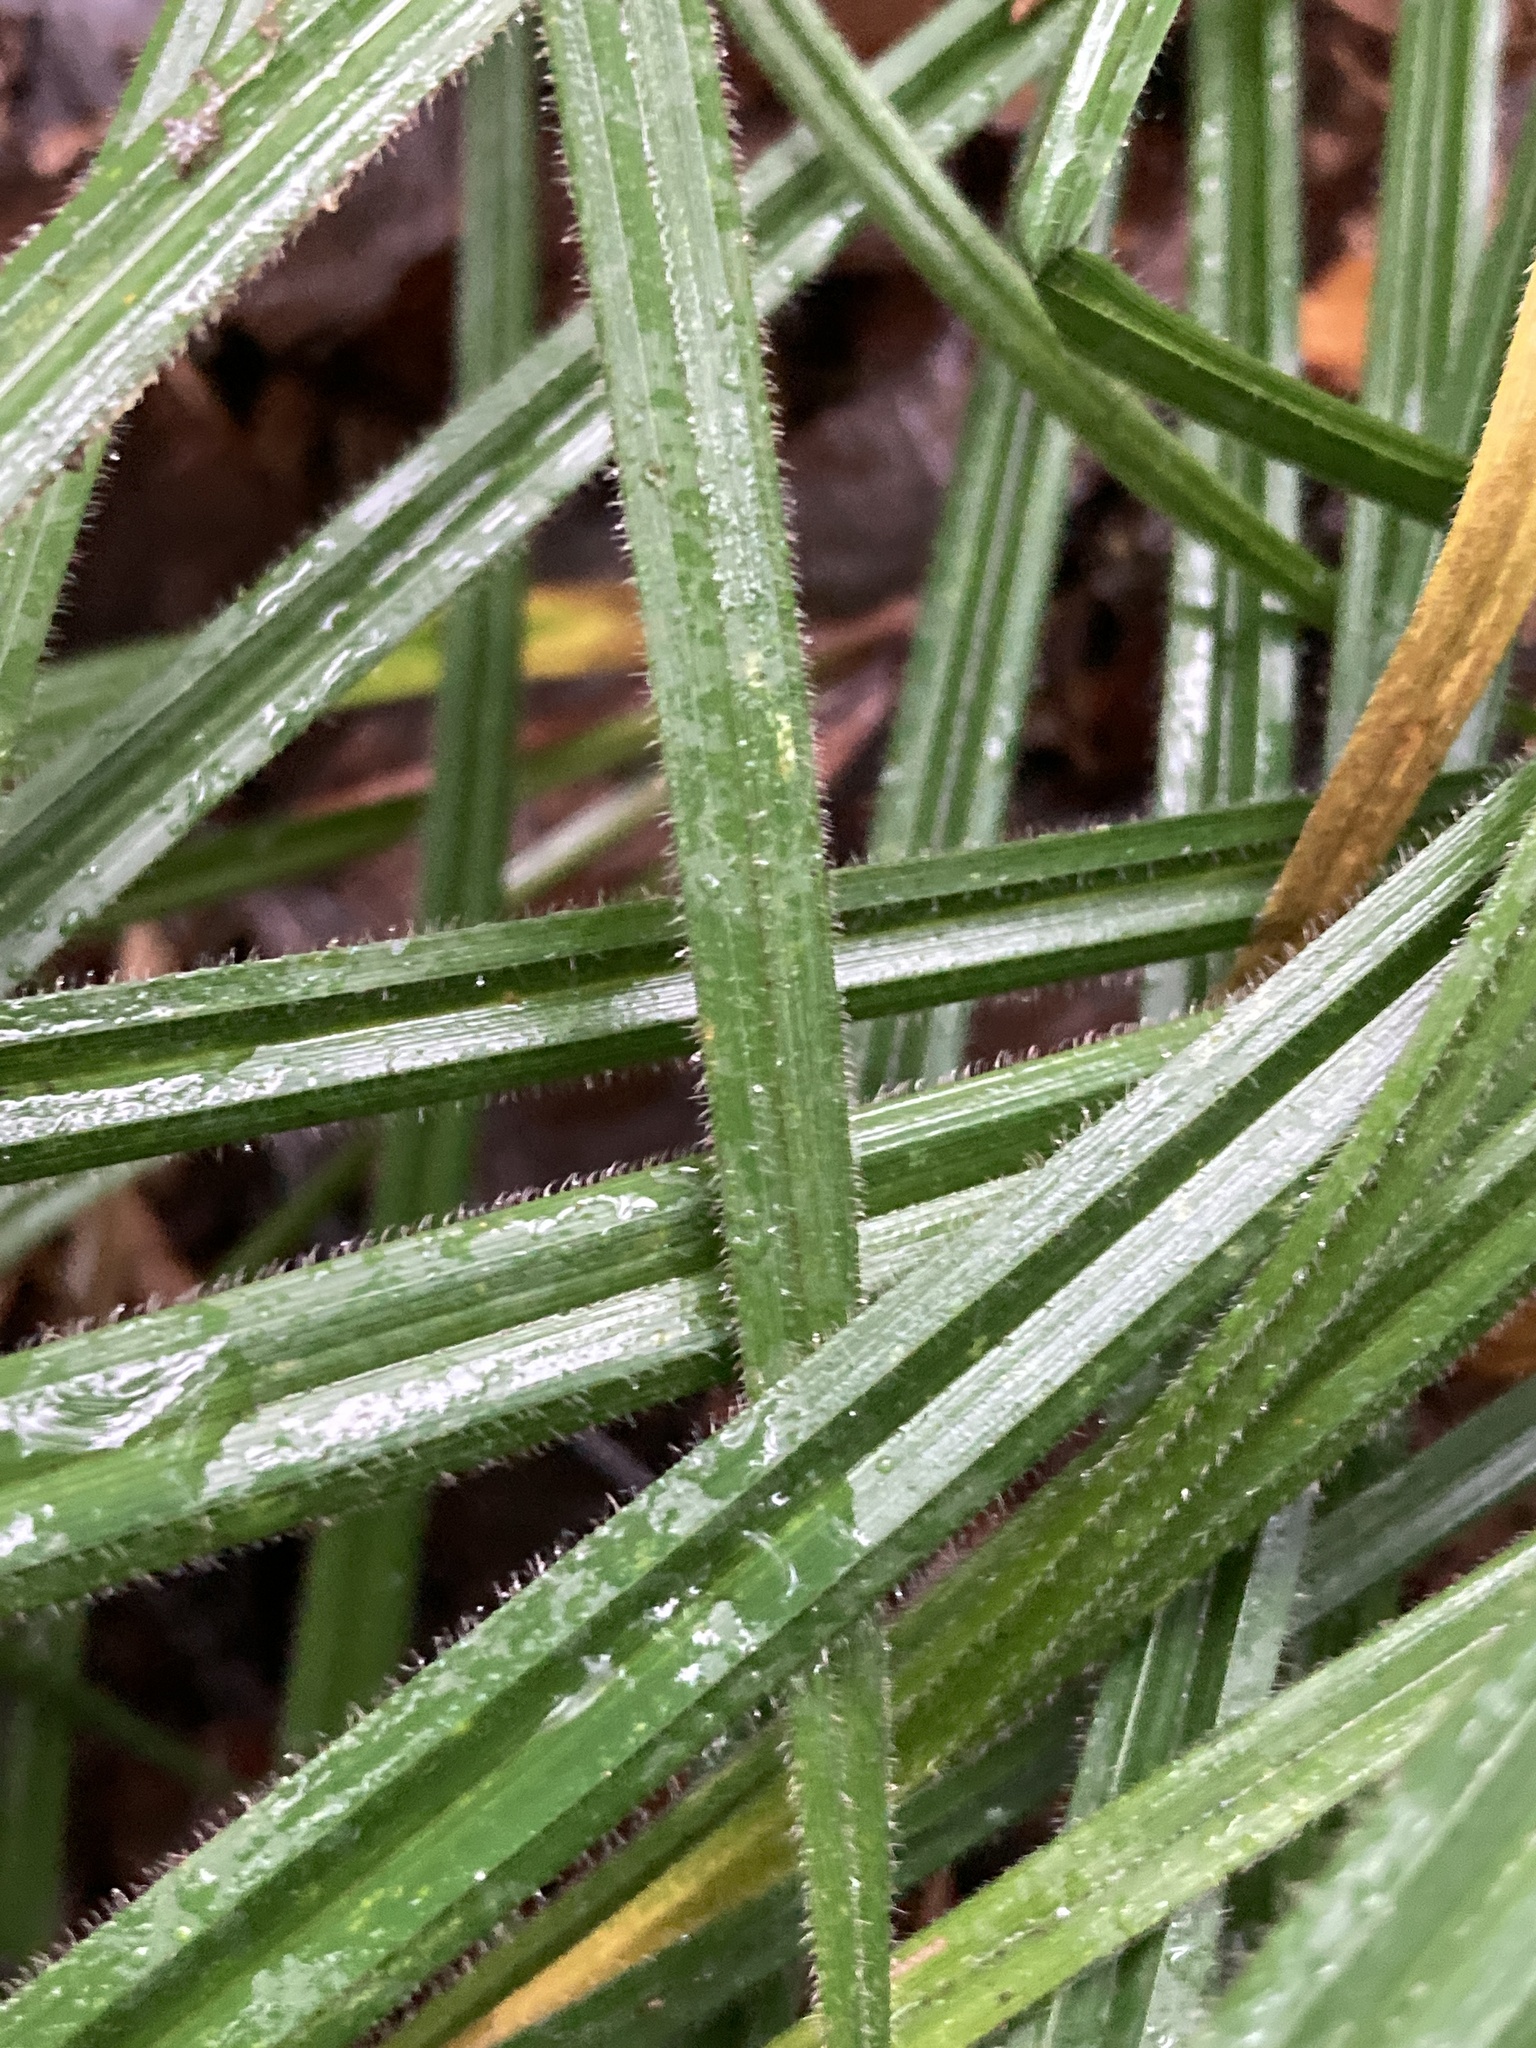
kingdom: Plantae
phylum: Tracheophyta
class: Liliopsida
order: Poales
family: Cyperaceae
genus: Carex
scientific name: Carex pilosa
